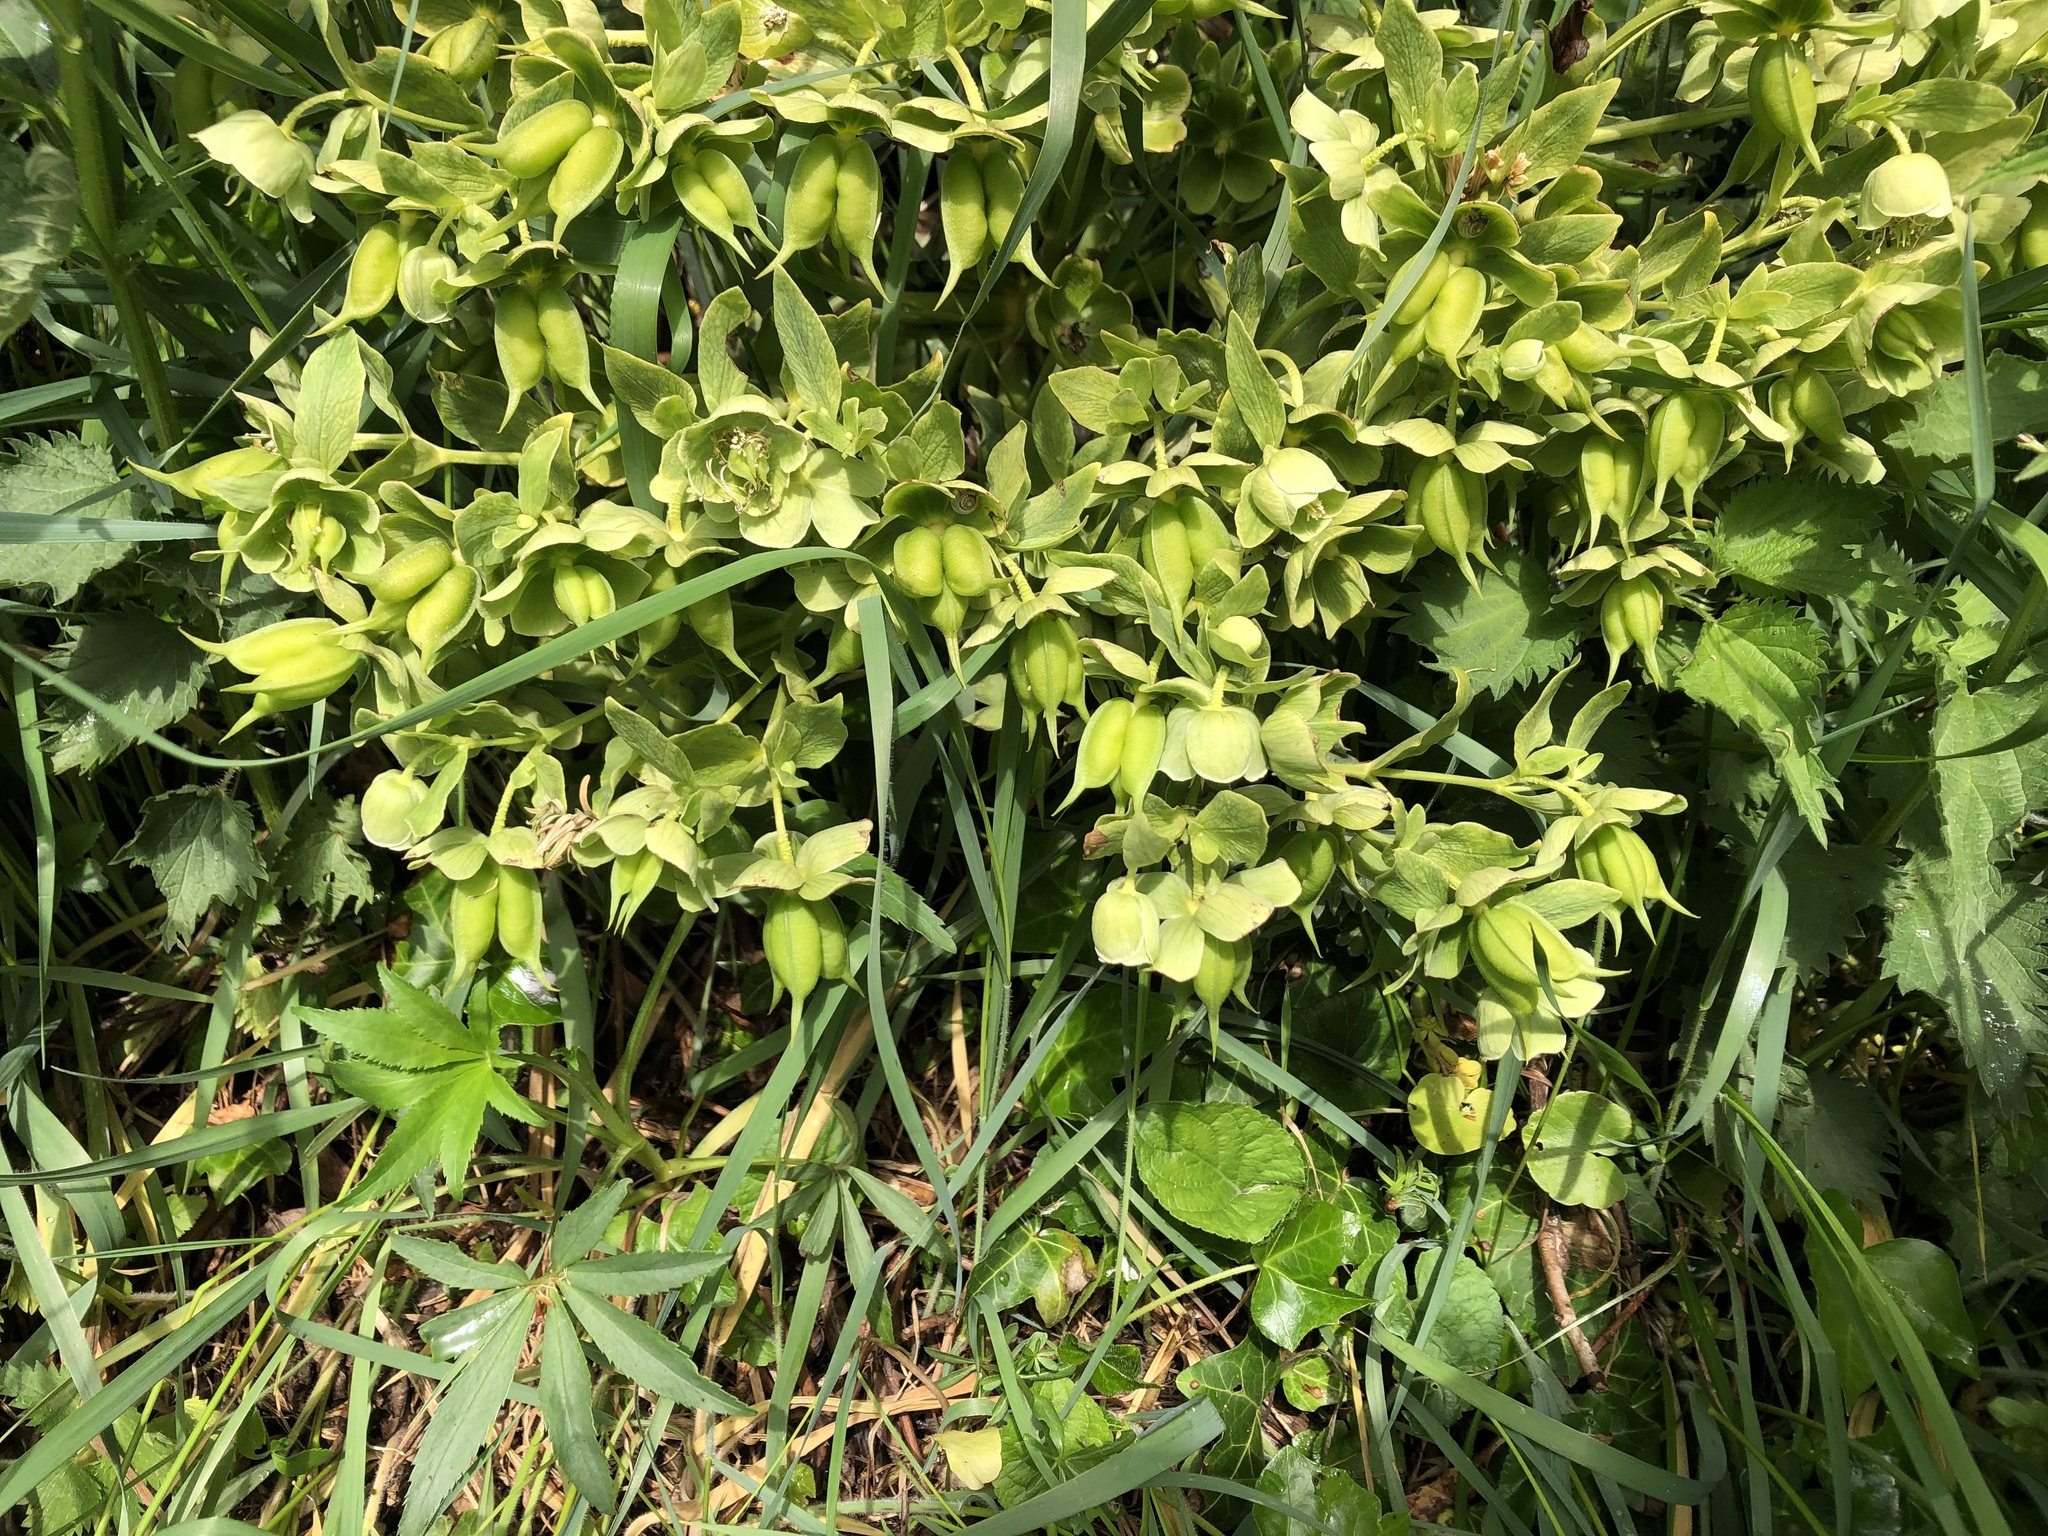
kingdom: Plantae
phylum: Tracheophyta
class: Magnoliopsida
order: Ranunculales
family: Ranunculaceae
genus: Helleborus
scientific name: Helleborus foetidus
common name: Stinking hellebore
